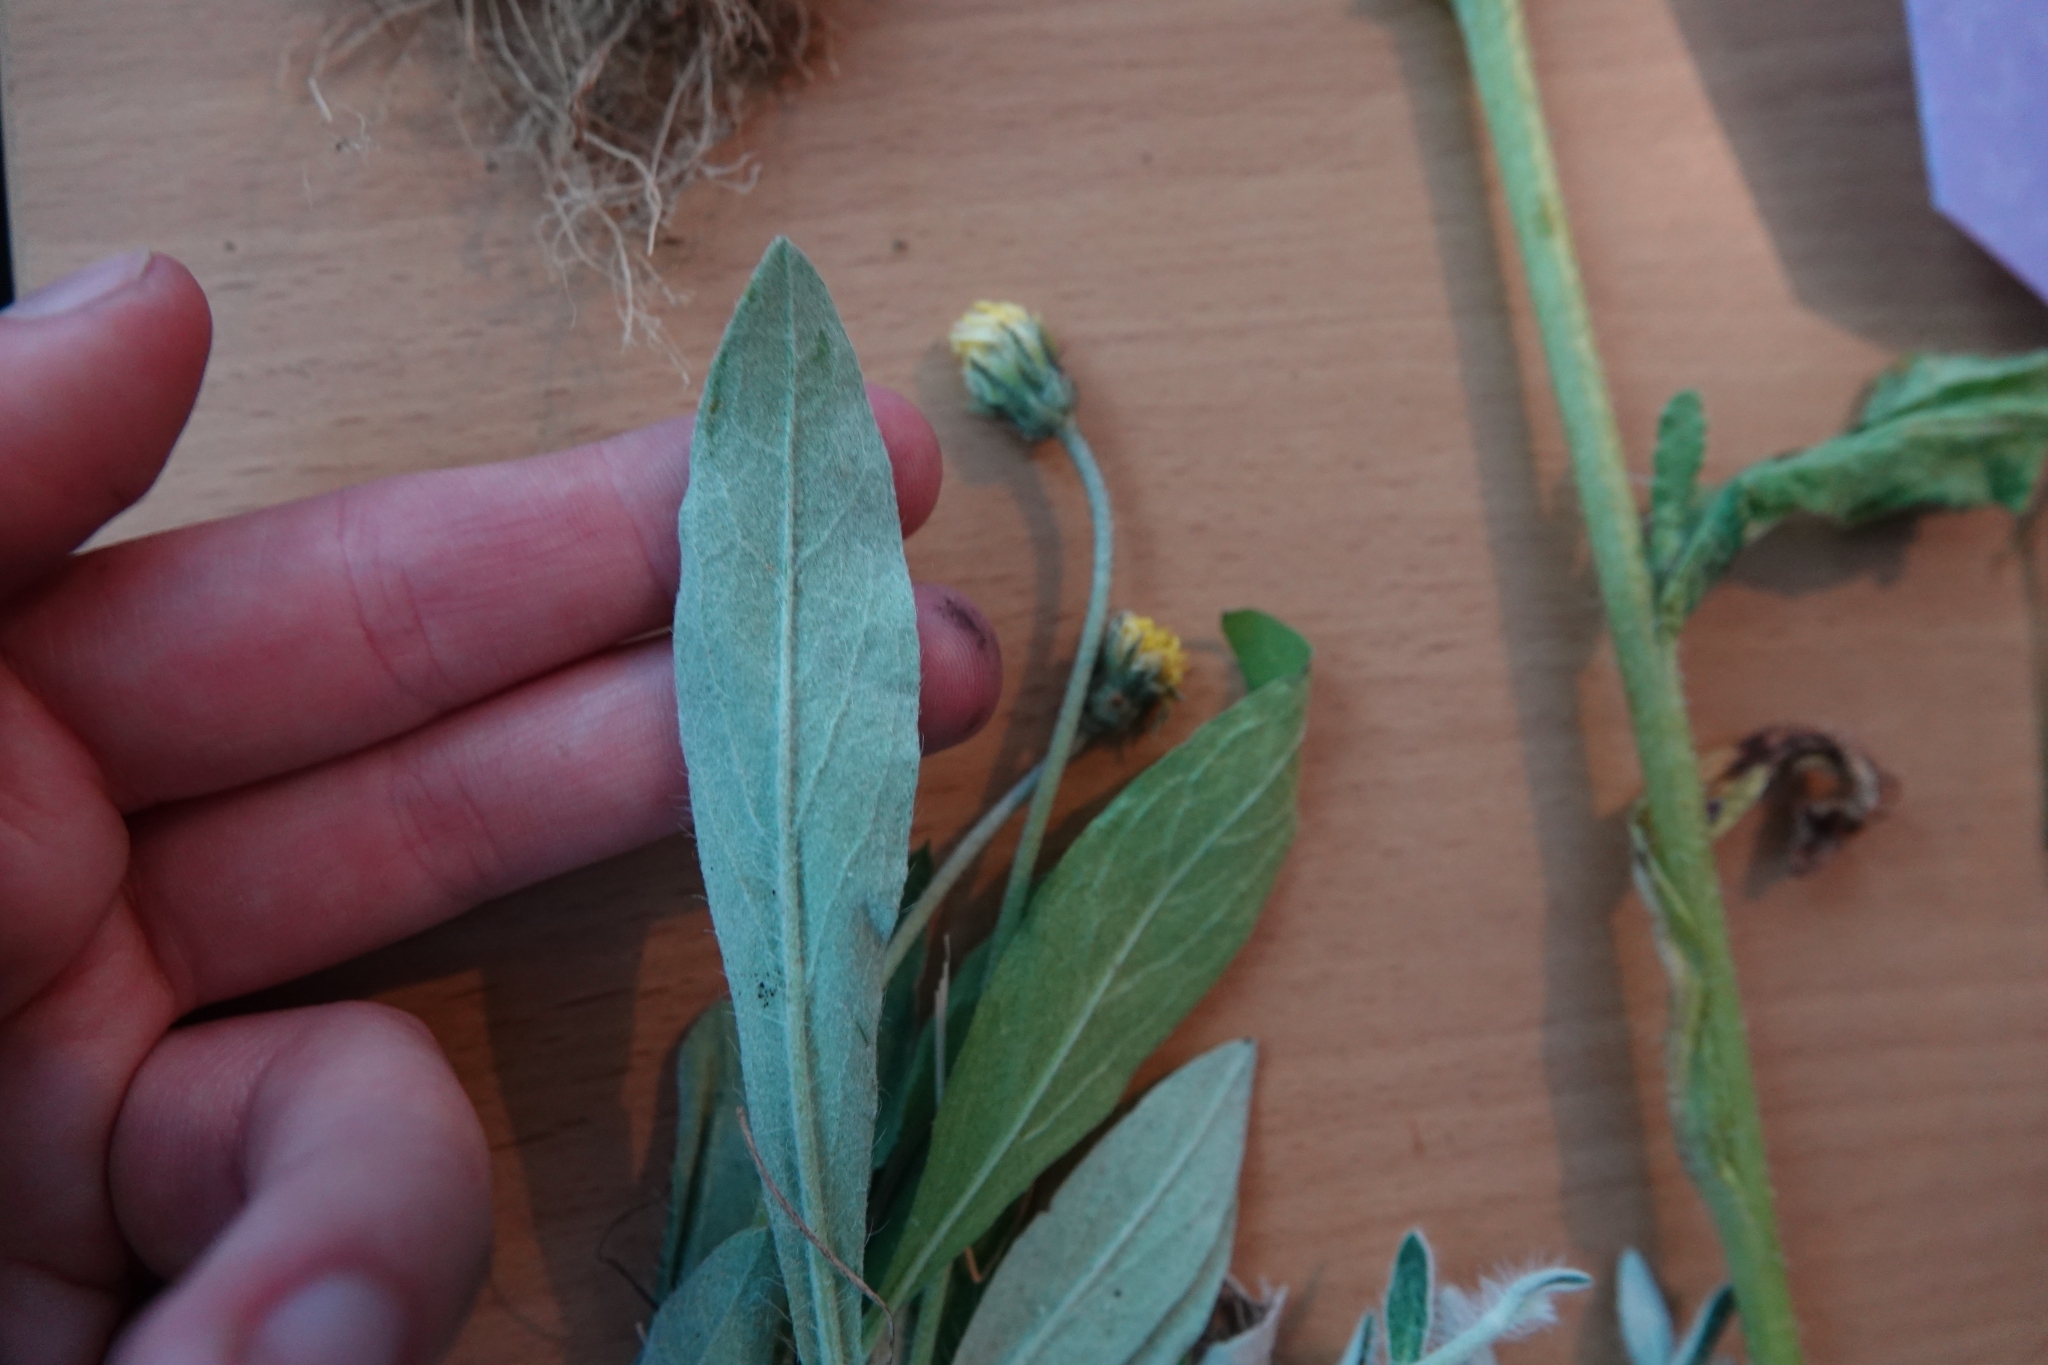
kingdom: Plantae
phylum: Tracheophyta
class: Magnoliopsida
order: Asterales
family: Asteraceae
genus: Pilosella
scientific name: Pilosella officinarum
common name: Mouse-ear hawkweed
